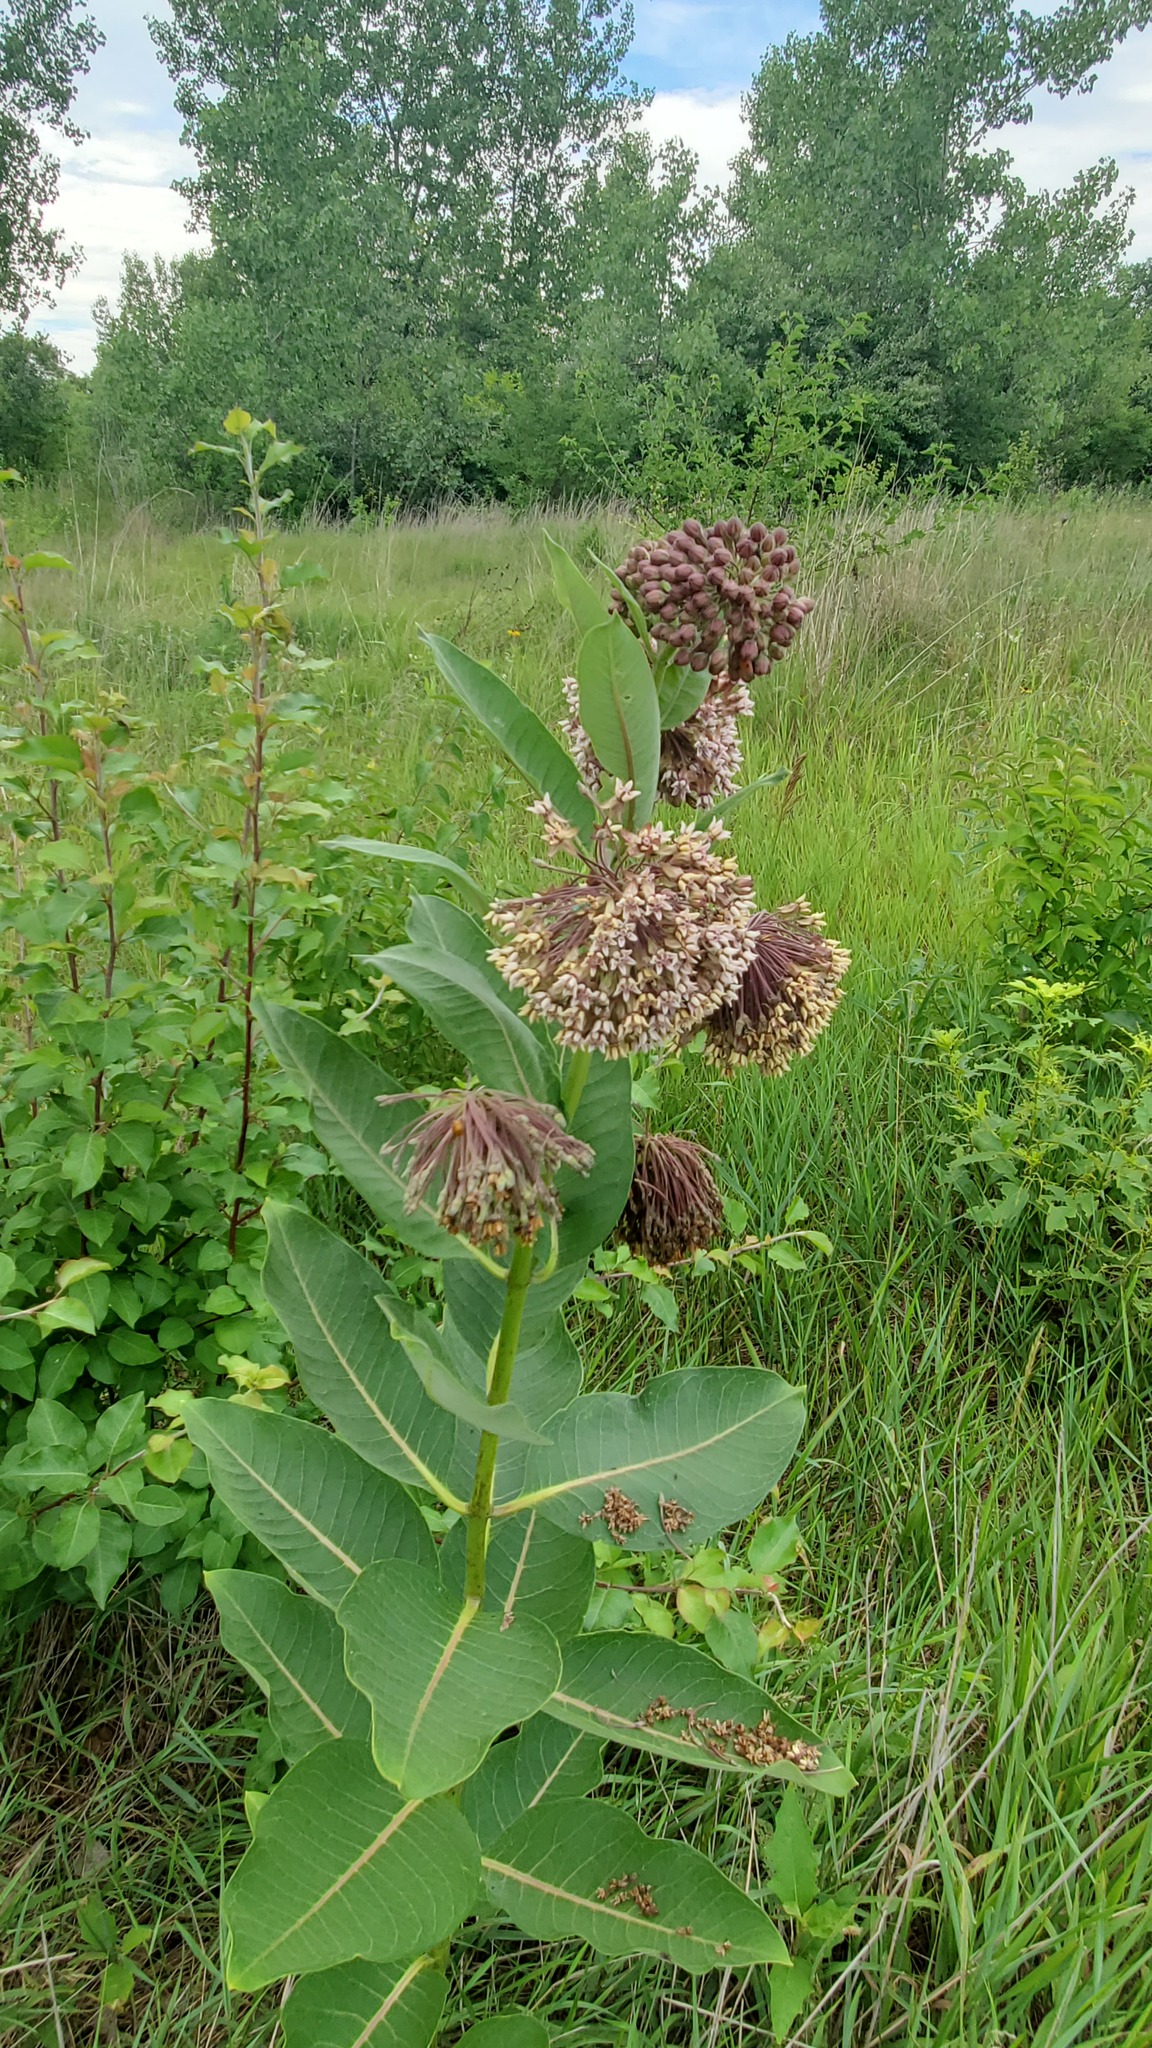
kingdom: Plantae
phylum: Tracheophyta
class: Magnoliopsida
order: Gentianales
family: Apocynaceae
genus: Asclepias
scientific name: Asclepias syriaca
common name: Common milkweed
